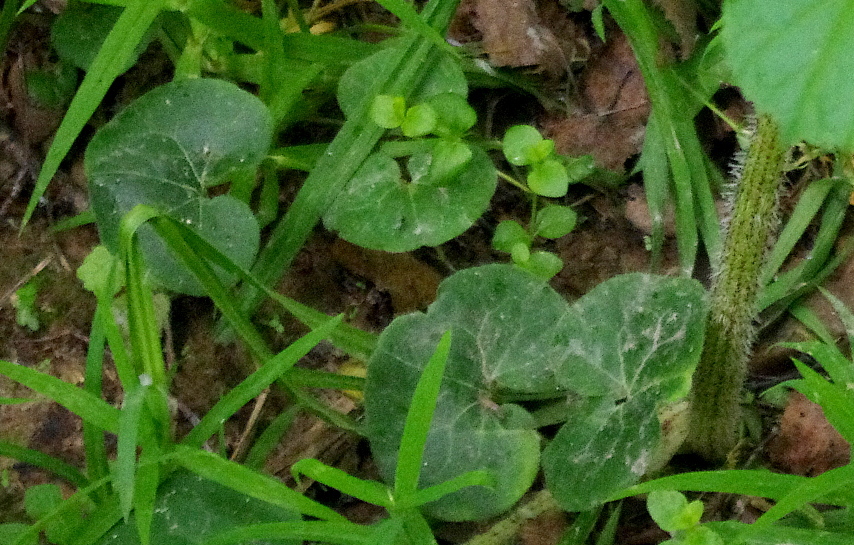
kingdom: Plantae
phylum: Tracheophyta
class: Magnoliopsida
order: Piperales
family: Aristolochiaceae
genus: Asarum
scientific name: Asarum europaeum
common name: Asarabacca
